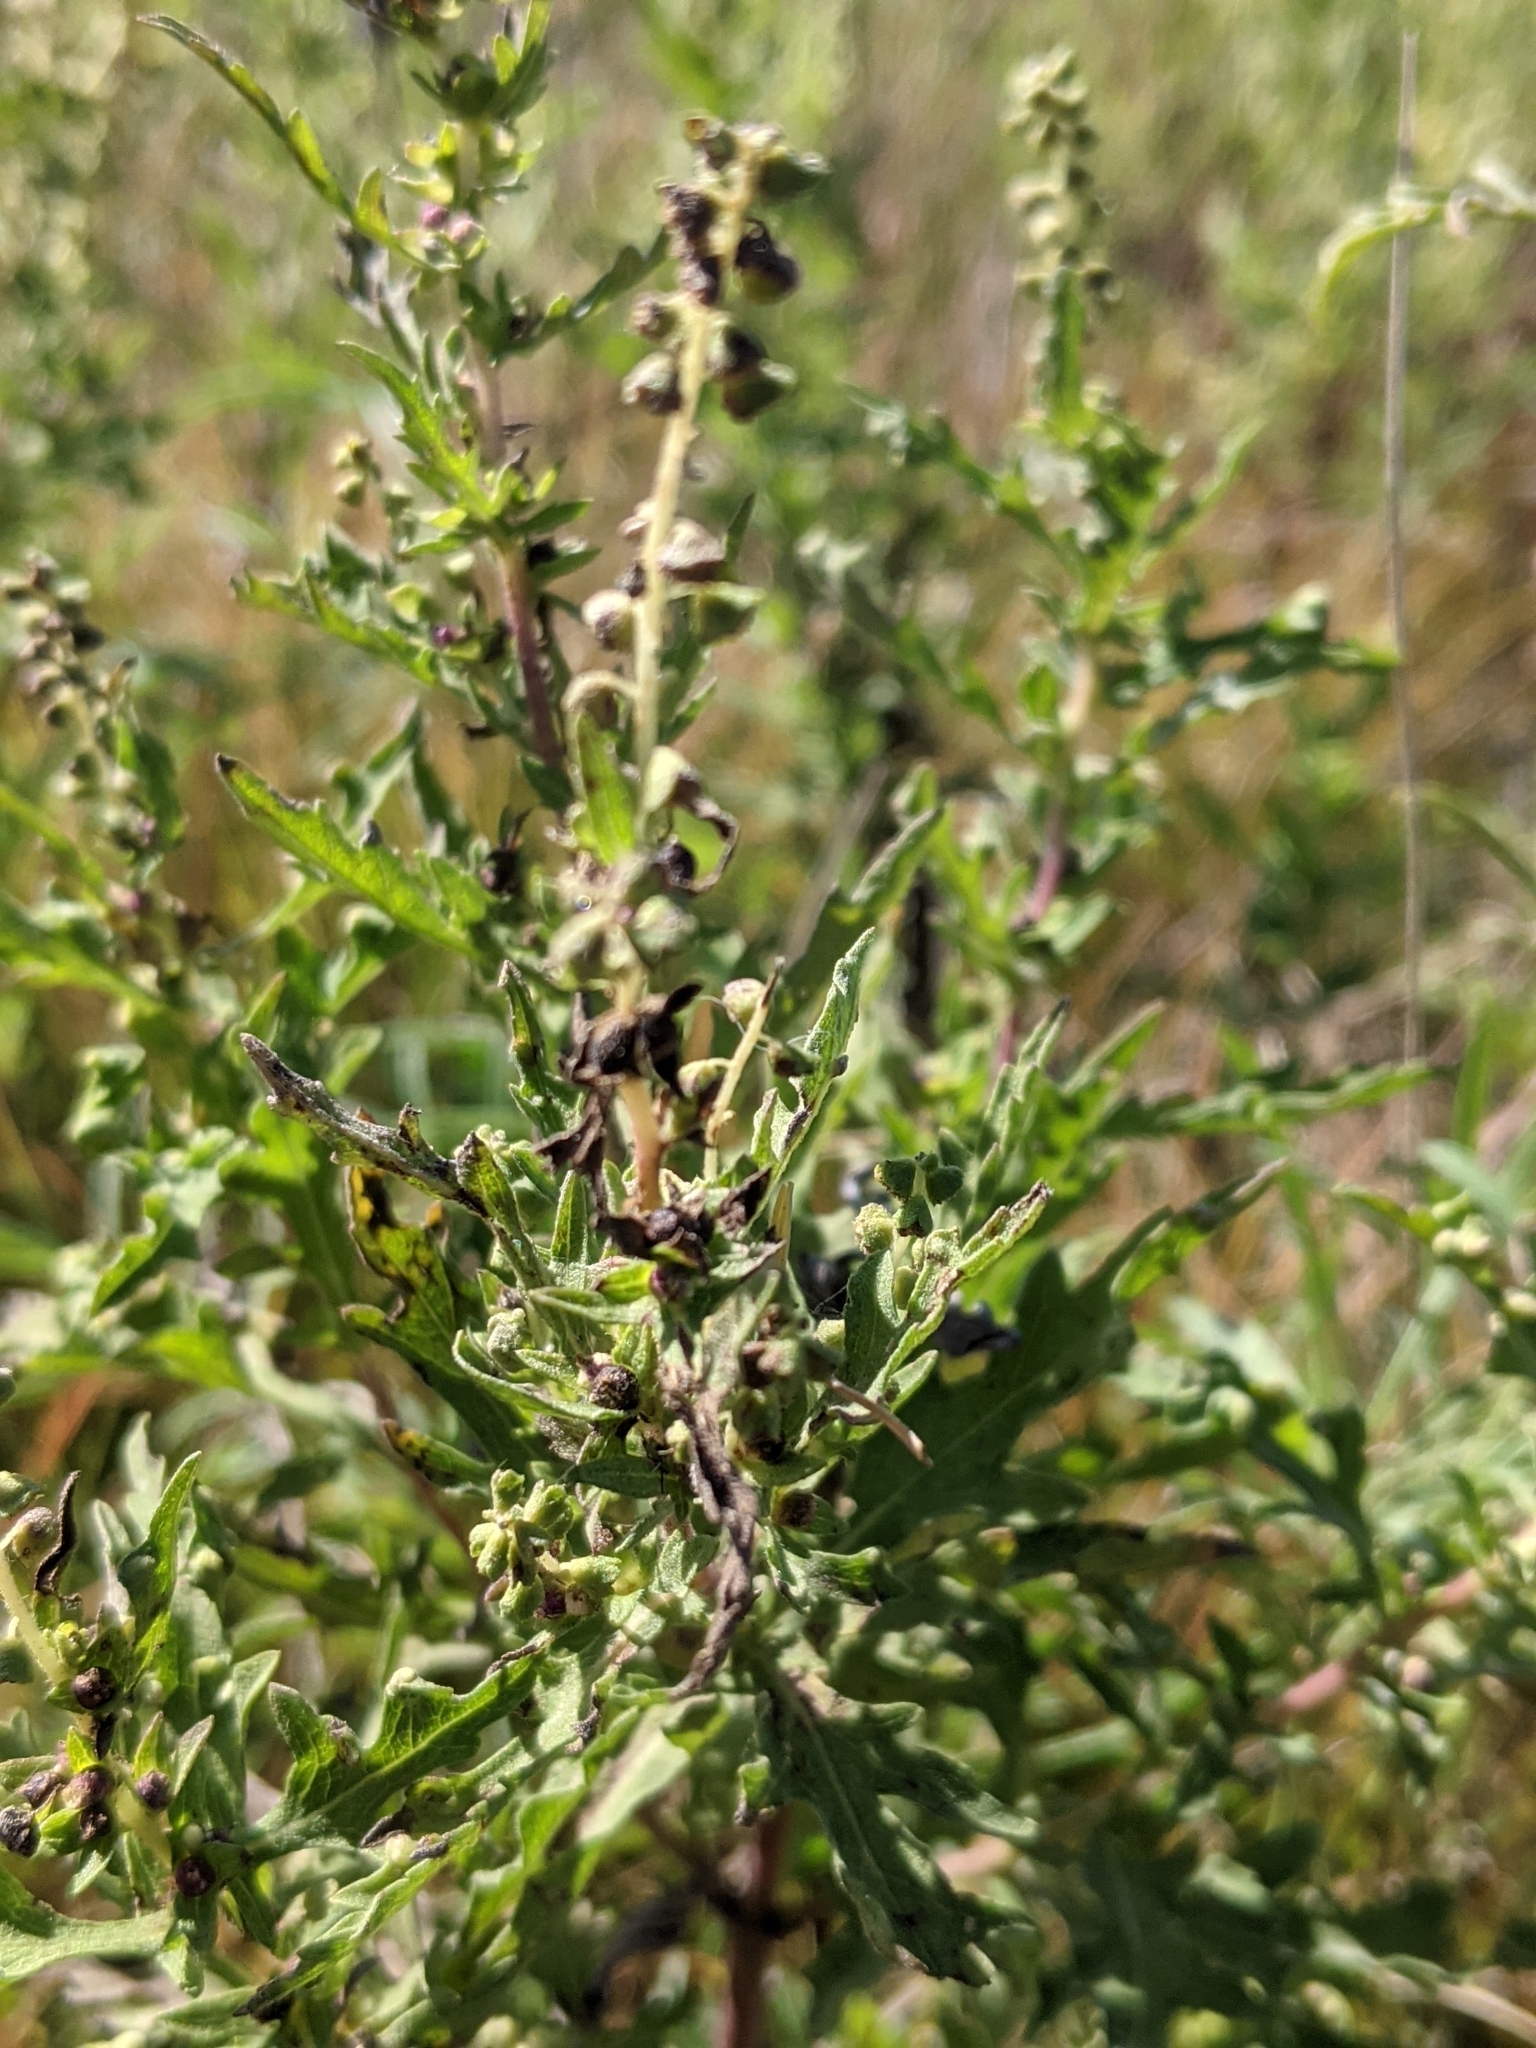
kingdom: Plantae
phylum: Tracheophyta
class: Magnoliopsida
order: Asterales
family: Asteraceae
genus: Ambrosia
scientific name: Ambrosia psilostachya
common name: Perennial ragweed
